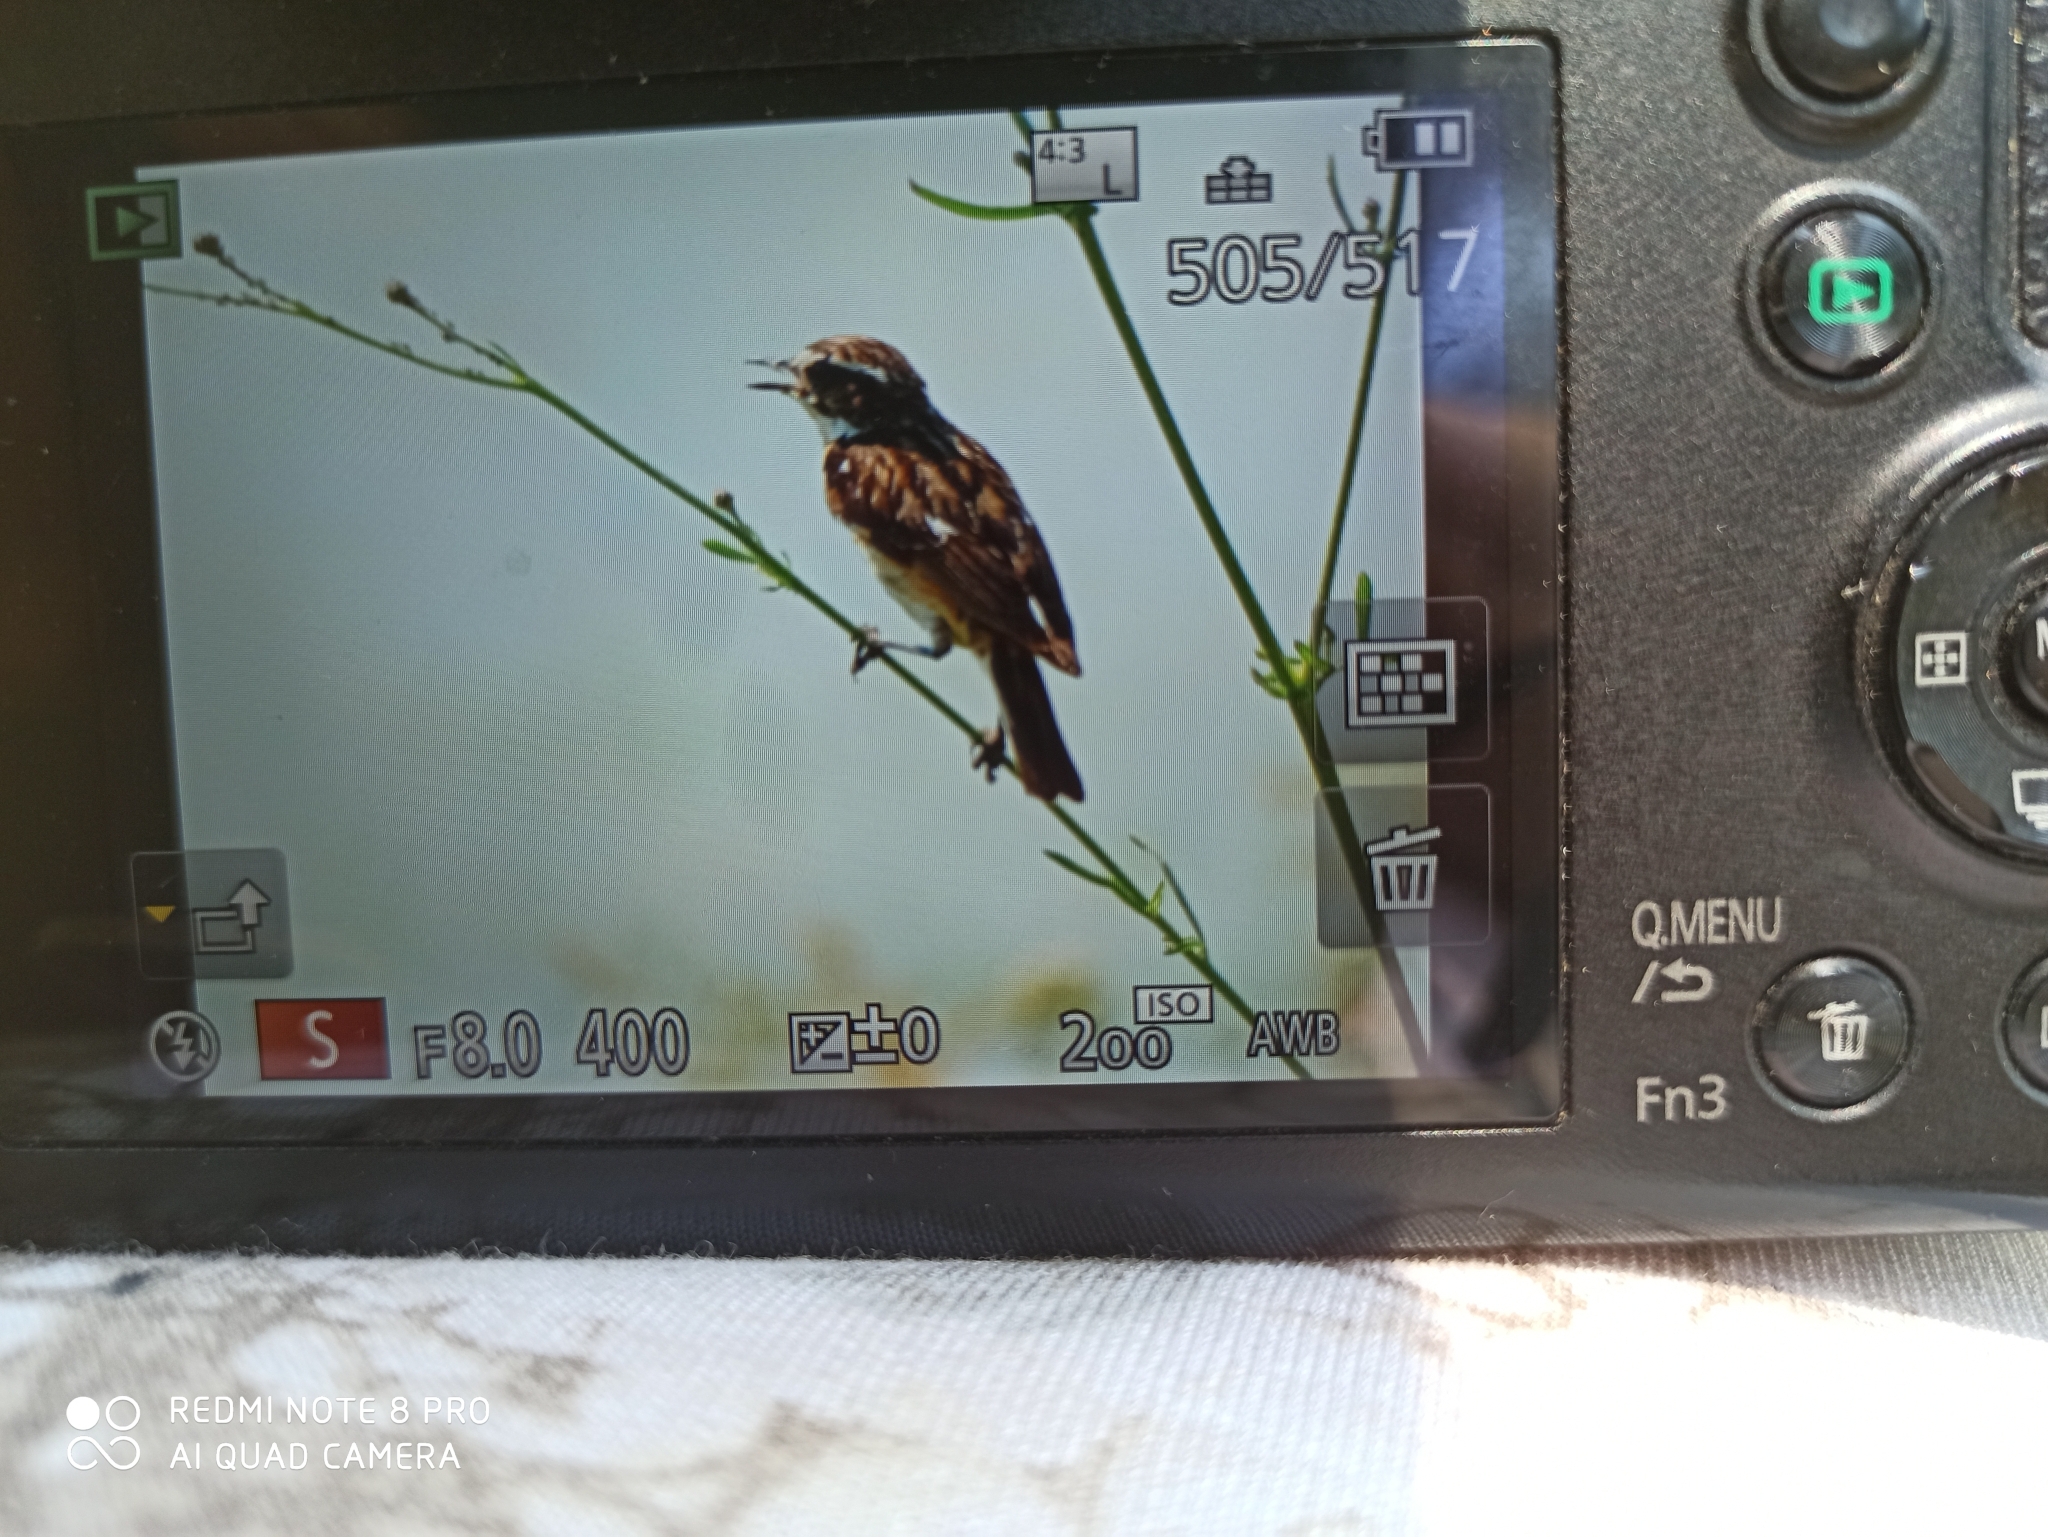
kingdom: Animalia
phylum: Chordata
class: Aves
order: Passeriformes
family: Muscicapidae
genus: Saxicola
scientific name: Saxicola rubetra
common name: Whinchat
